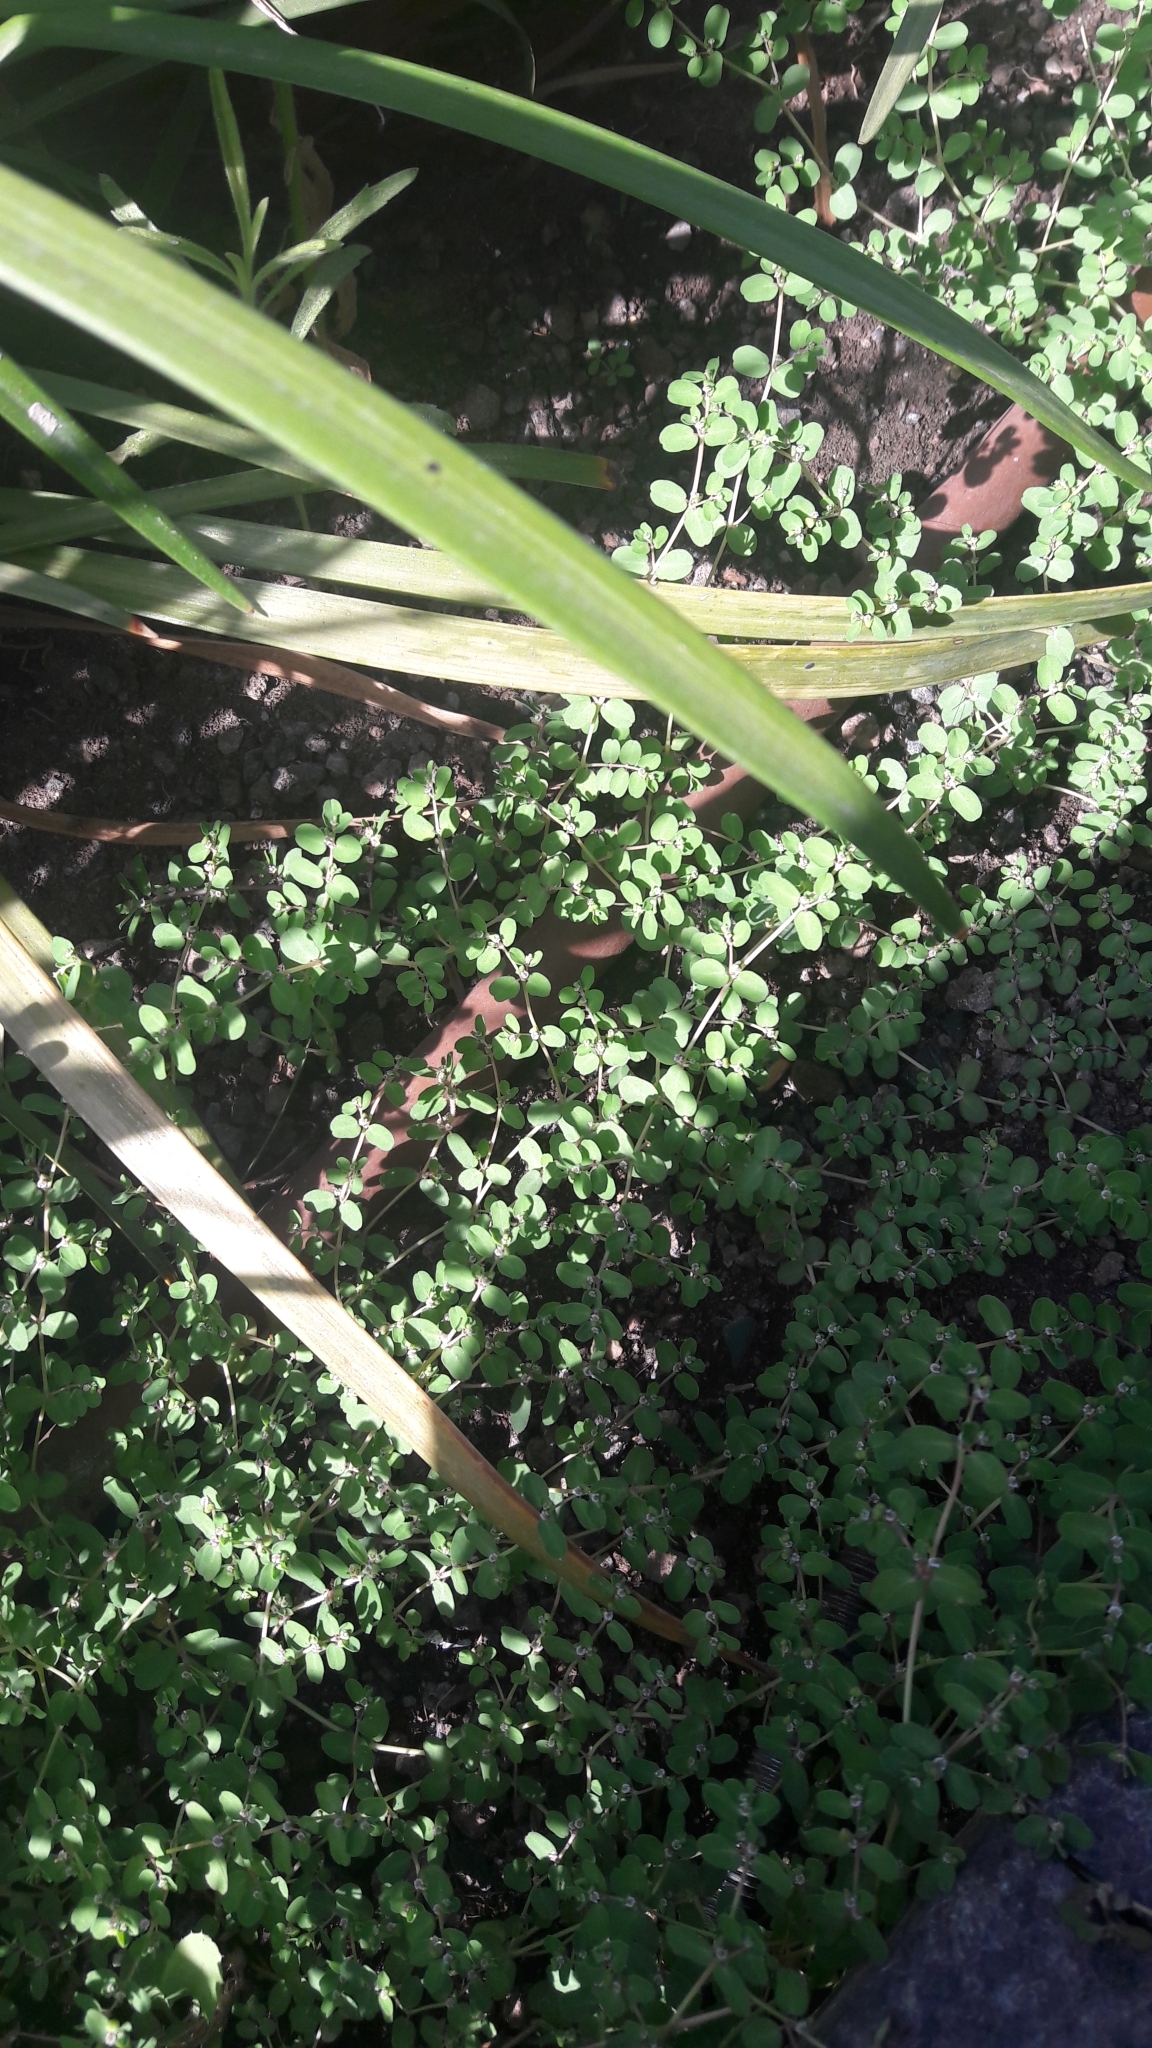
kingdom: Plantae
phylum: Tracheophyta
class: Magnoliopsida
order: Malpighiales
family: Euphorbiaceae
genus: Euphorbia
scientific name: Euphorbia serpens
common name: Matted sandmat
